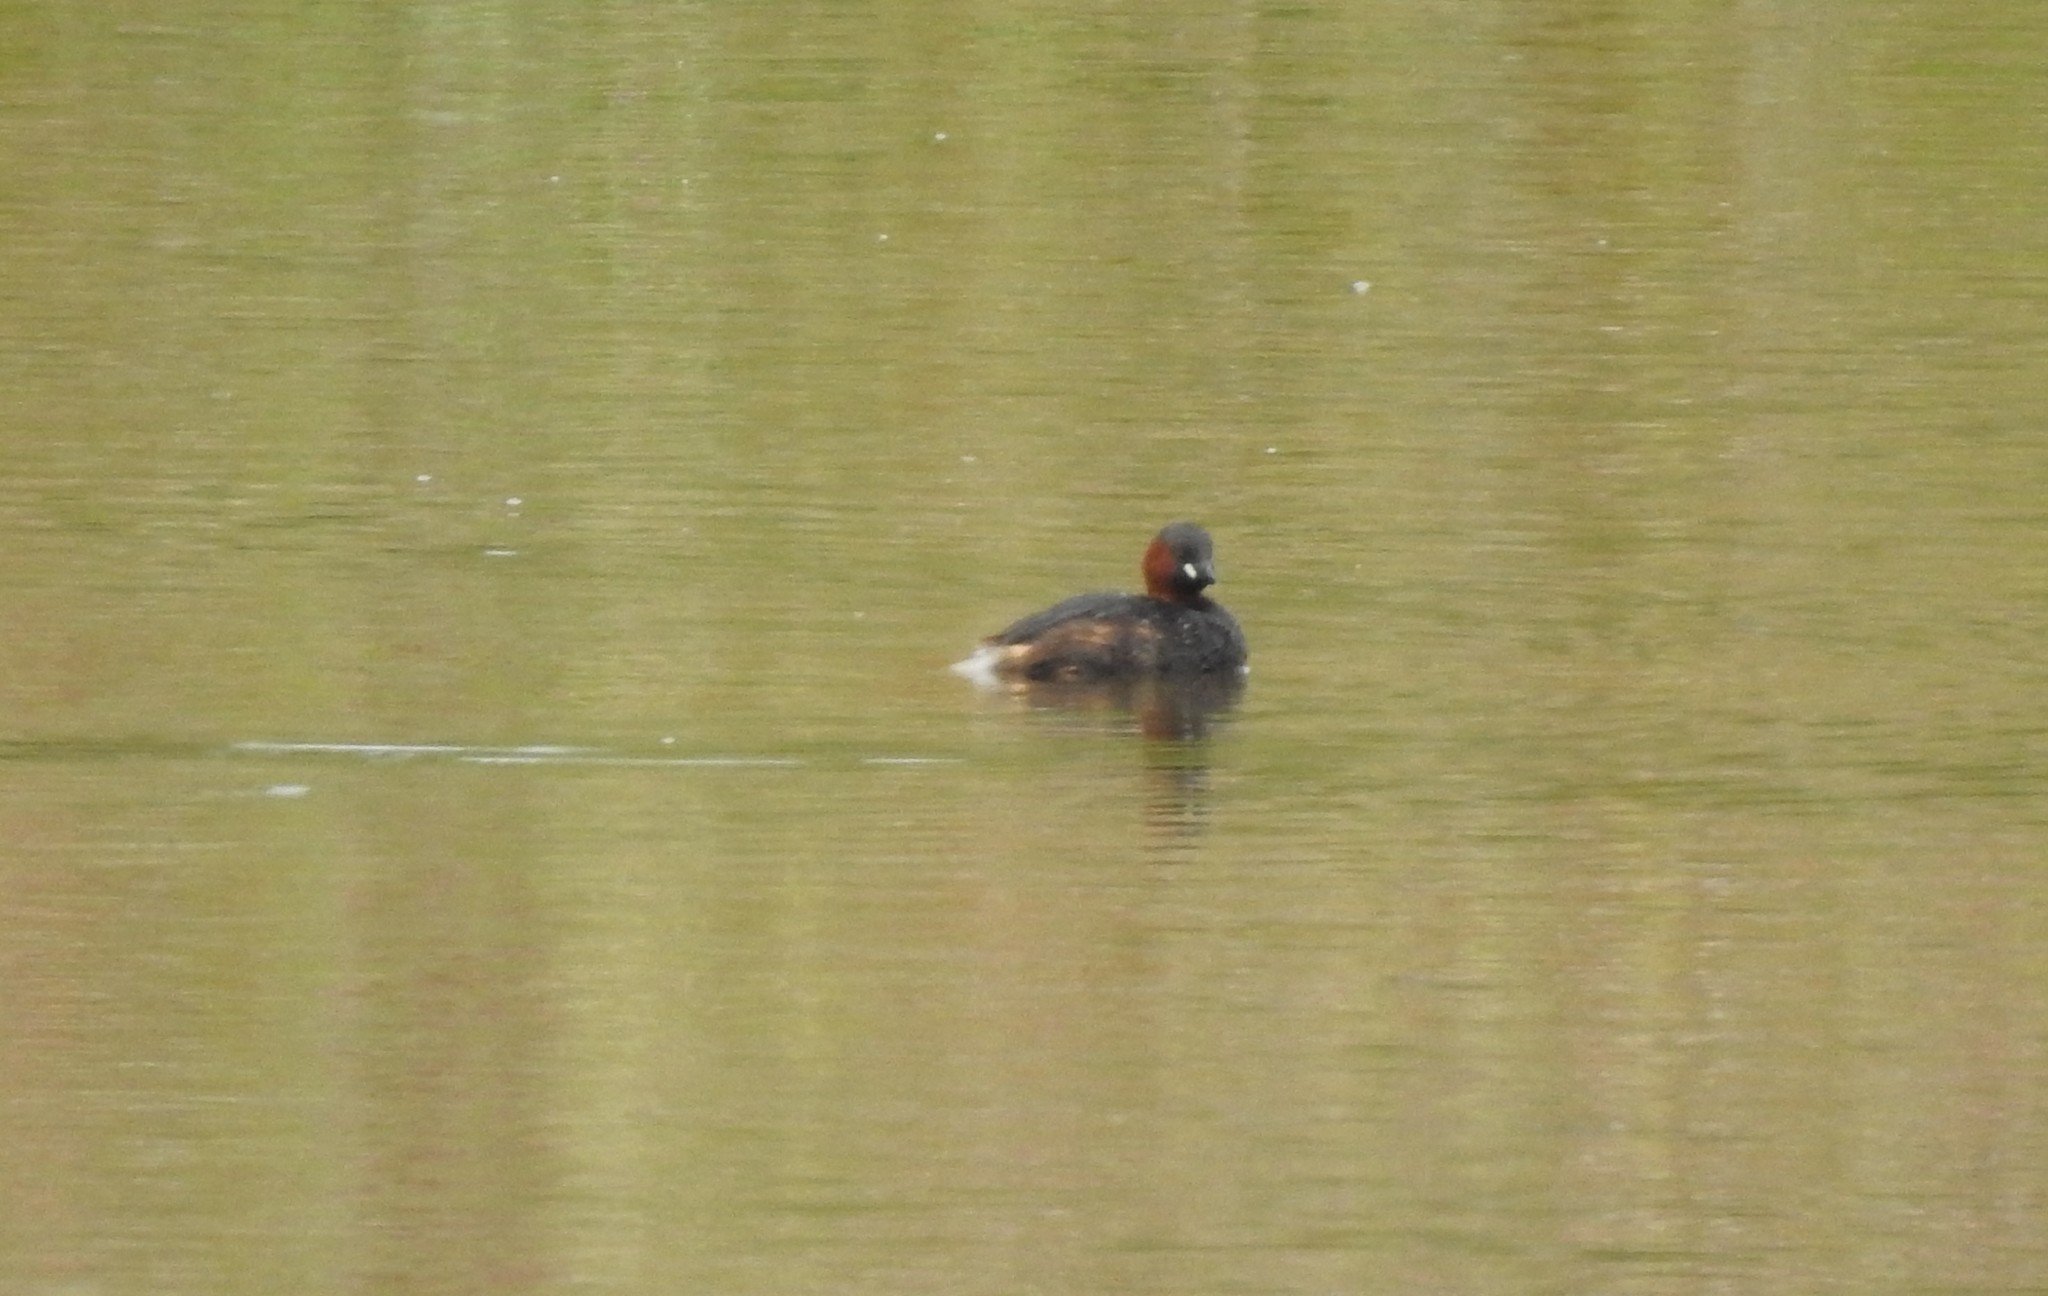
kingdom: Animalia
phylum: Chordata
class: Aves
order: Podicipediformes
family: Podicipedidae
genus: Tachybaptus
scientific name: Tachybaptus ruficollis
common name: Little grebe
